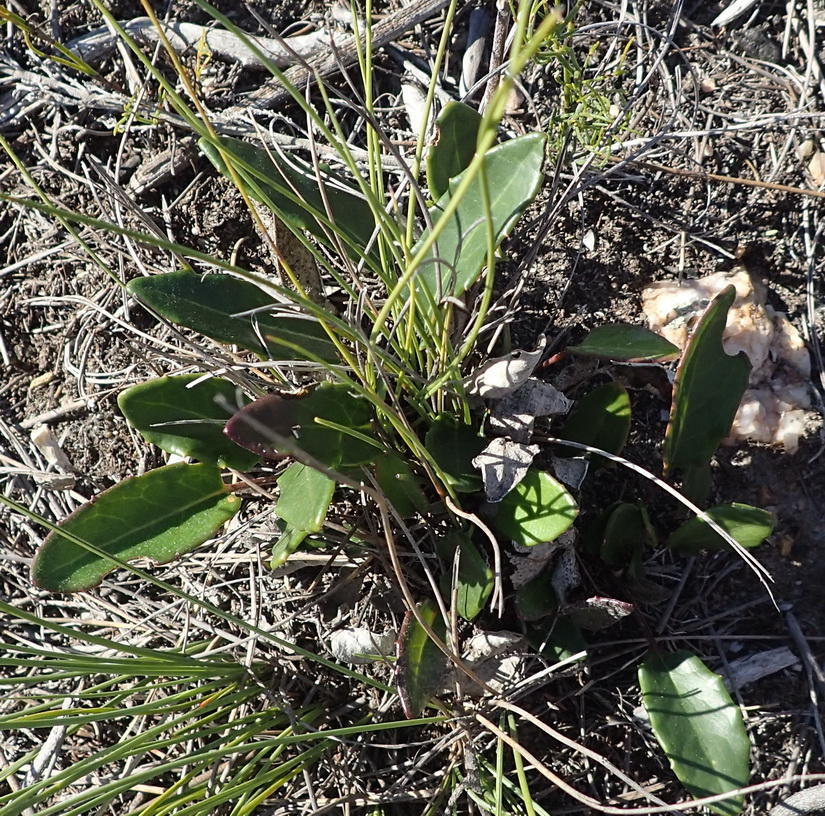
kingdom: Plantae
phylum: Tracheophyta
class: Magnoliopsida
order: Asterales
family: Asteraceae
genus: Gerbera
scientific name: Gerbera serrata
